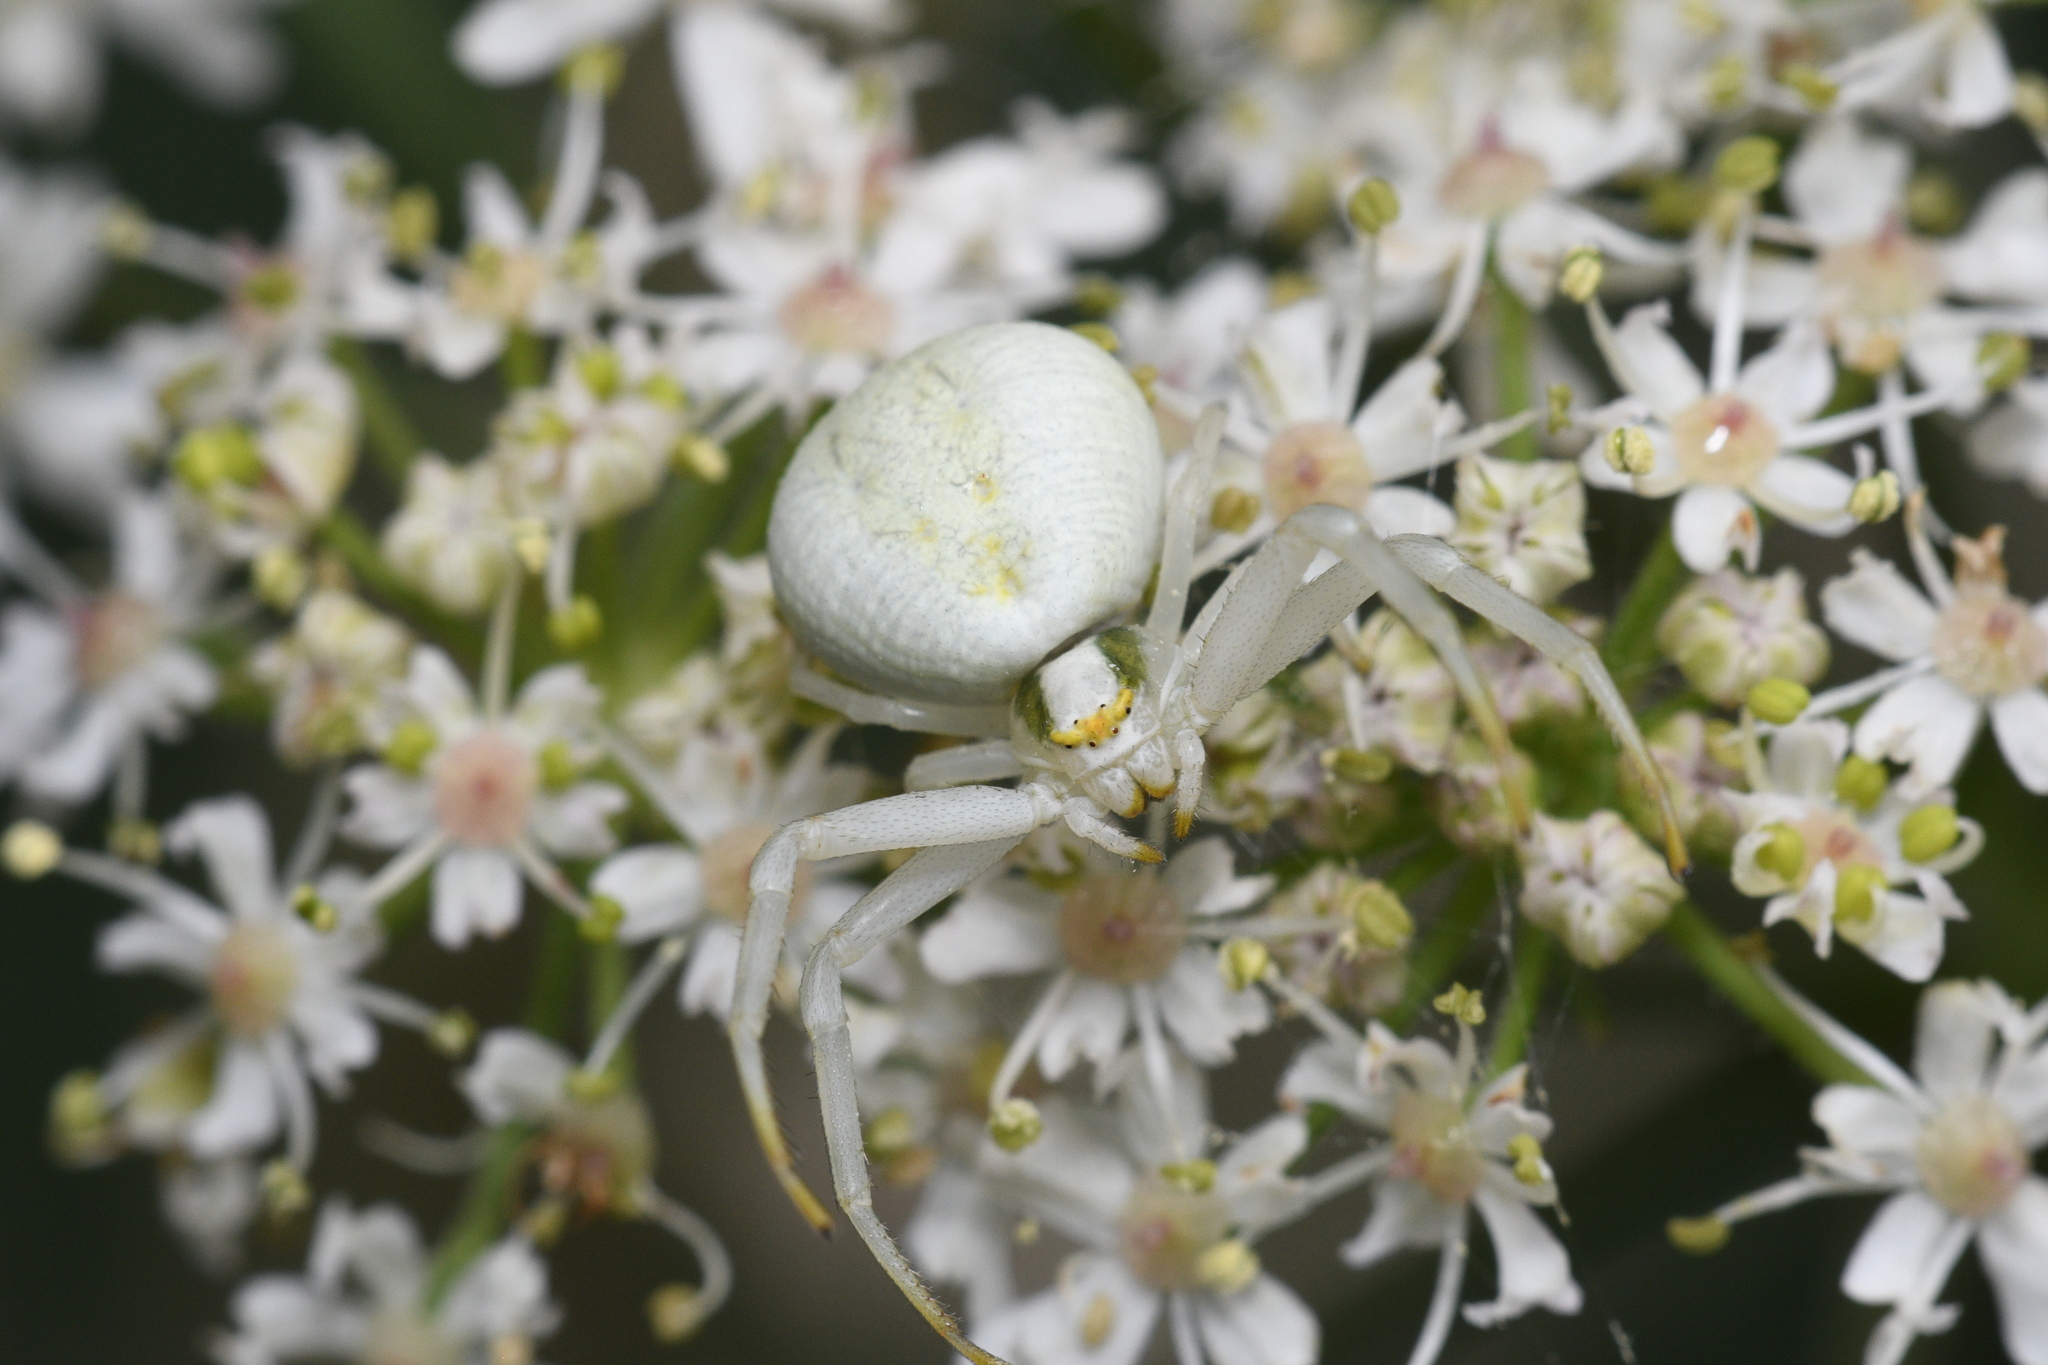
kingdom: Animalia
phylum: Arthropoda
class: Arachnida
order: Araneae
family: Thomisidae
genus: Misumena
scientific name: Misumena vatia
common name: Goldenrod crab spider
